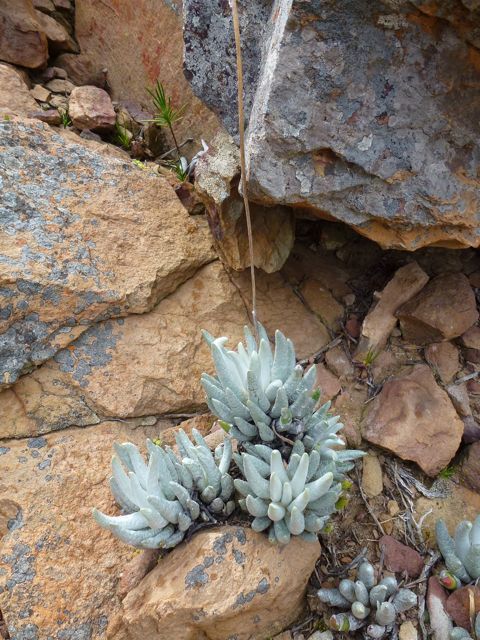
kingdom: Plantae
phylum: Tracheophyta
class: Magnoliopsida
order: Asterales
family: Asteraceae
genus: Caputia
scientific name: Caputia scaposa
